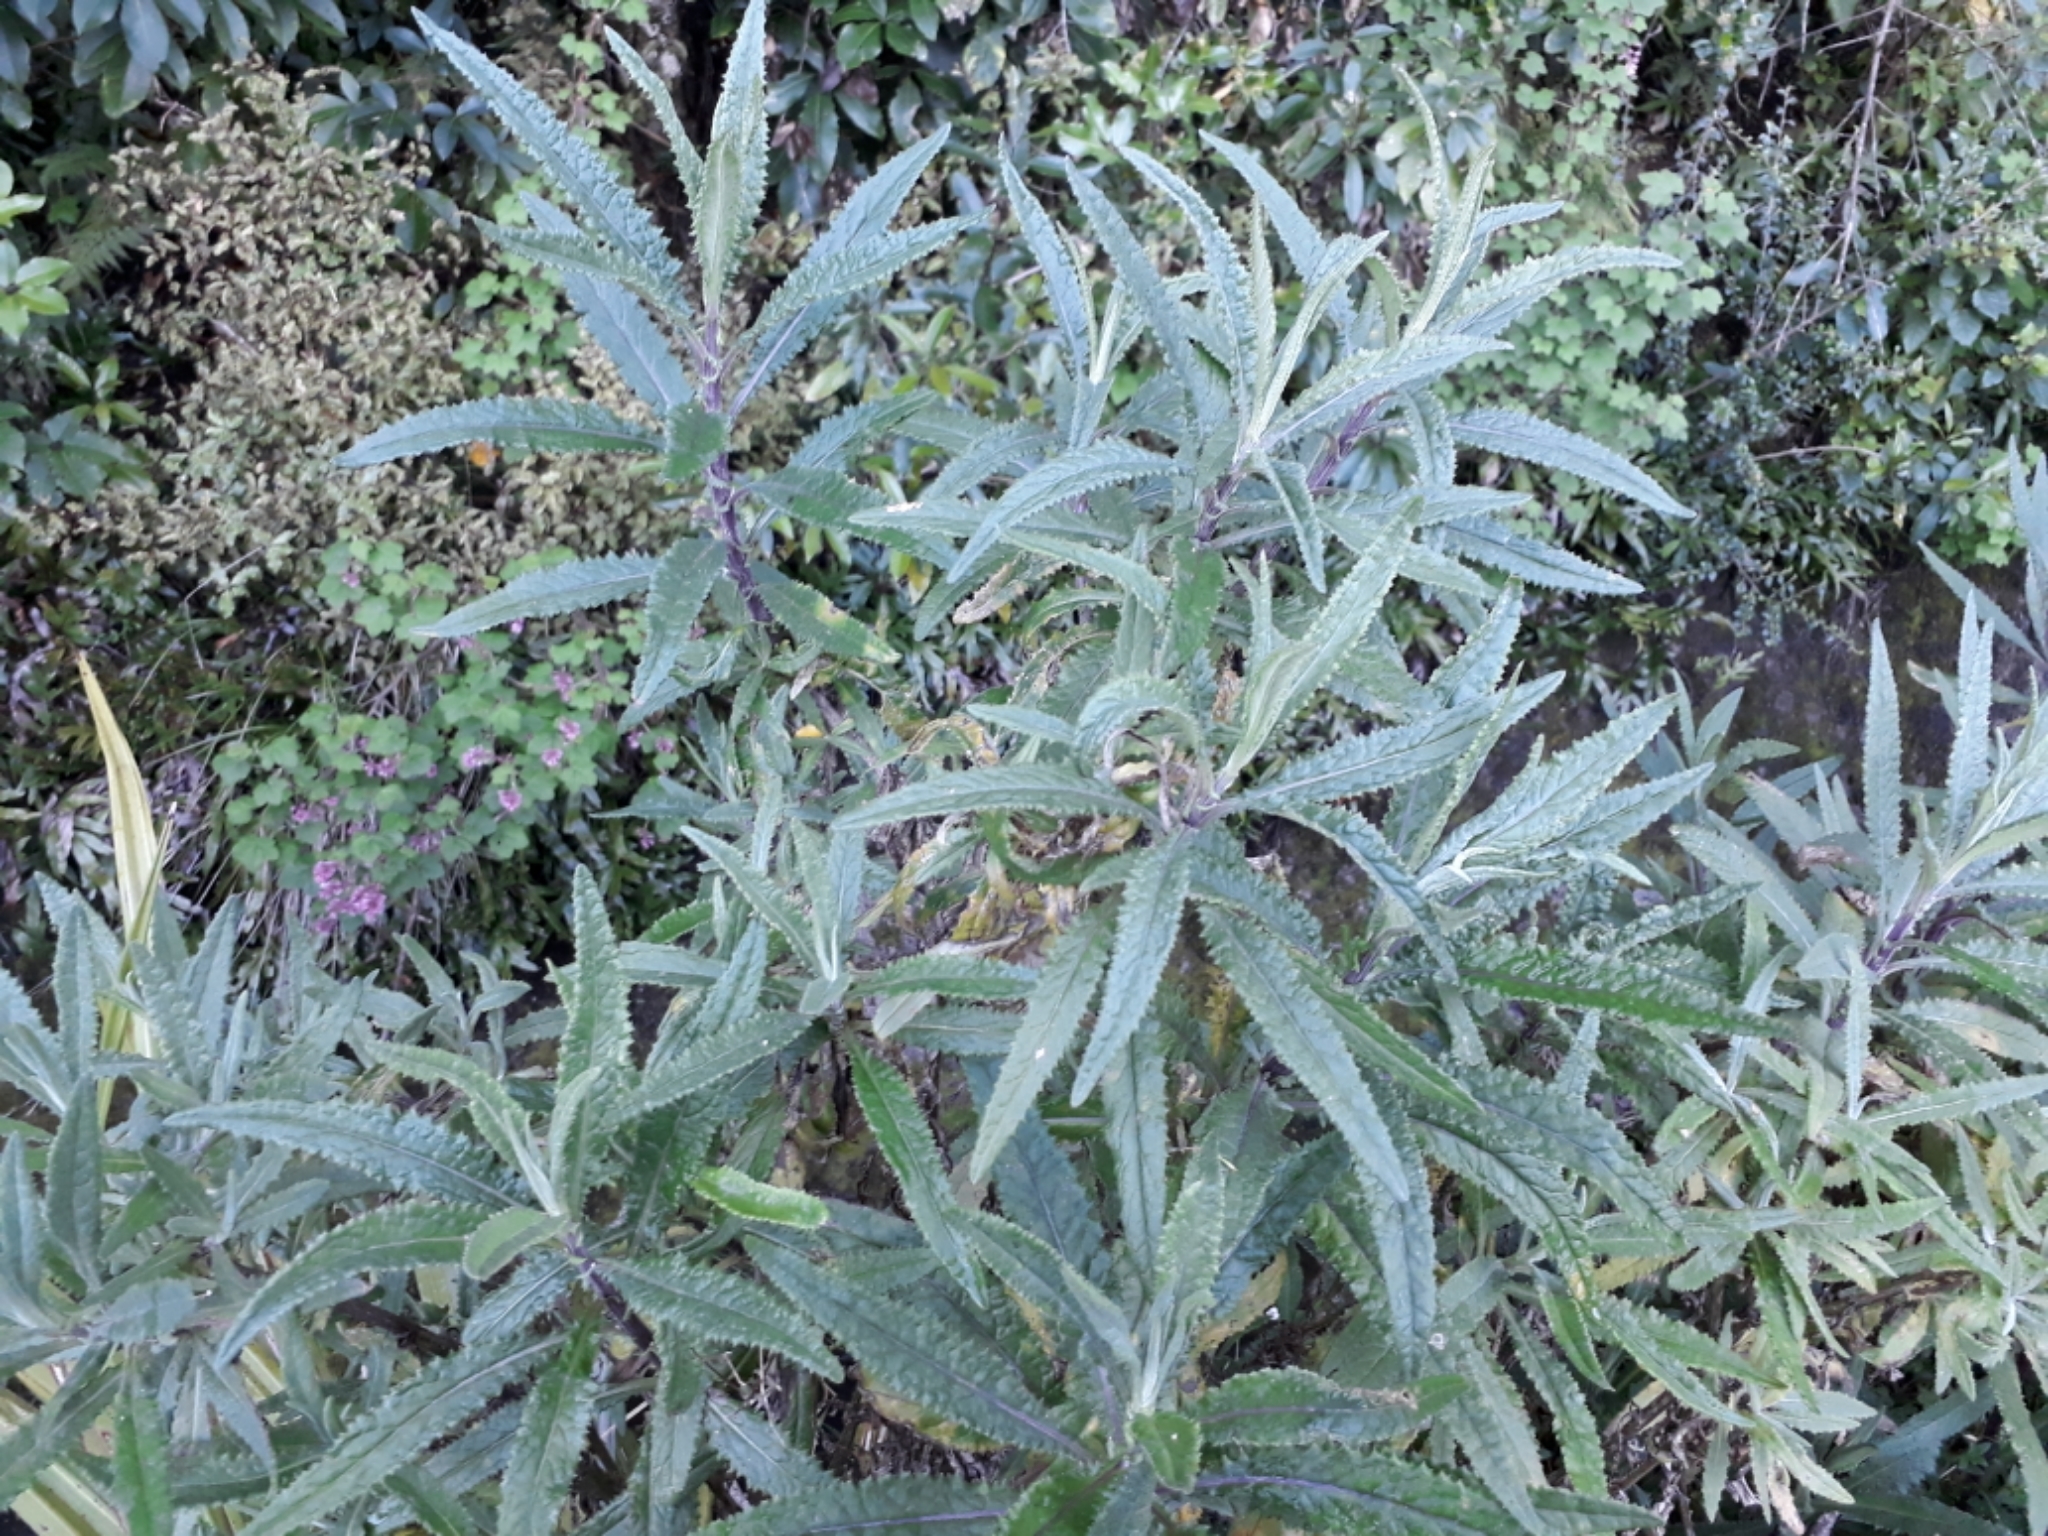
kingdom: Plantae
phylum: Tracheophyta
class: Magnoliopsida
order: Asterales
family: Asteraceae
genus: Senecio
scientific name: Senecio minimus
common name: Toothed fireweed
